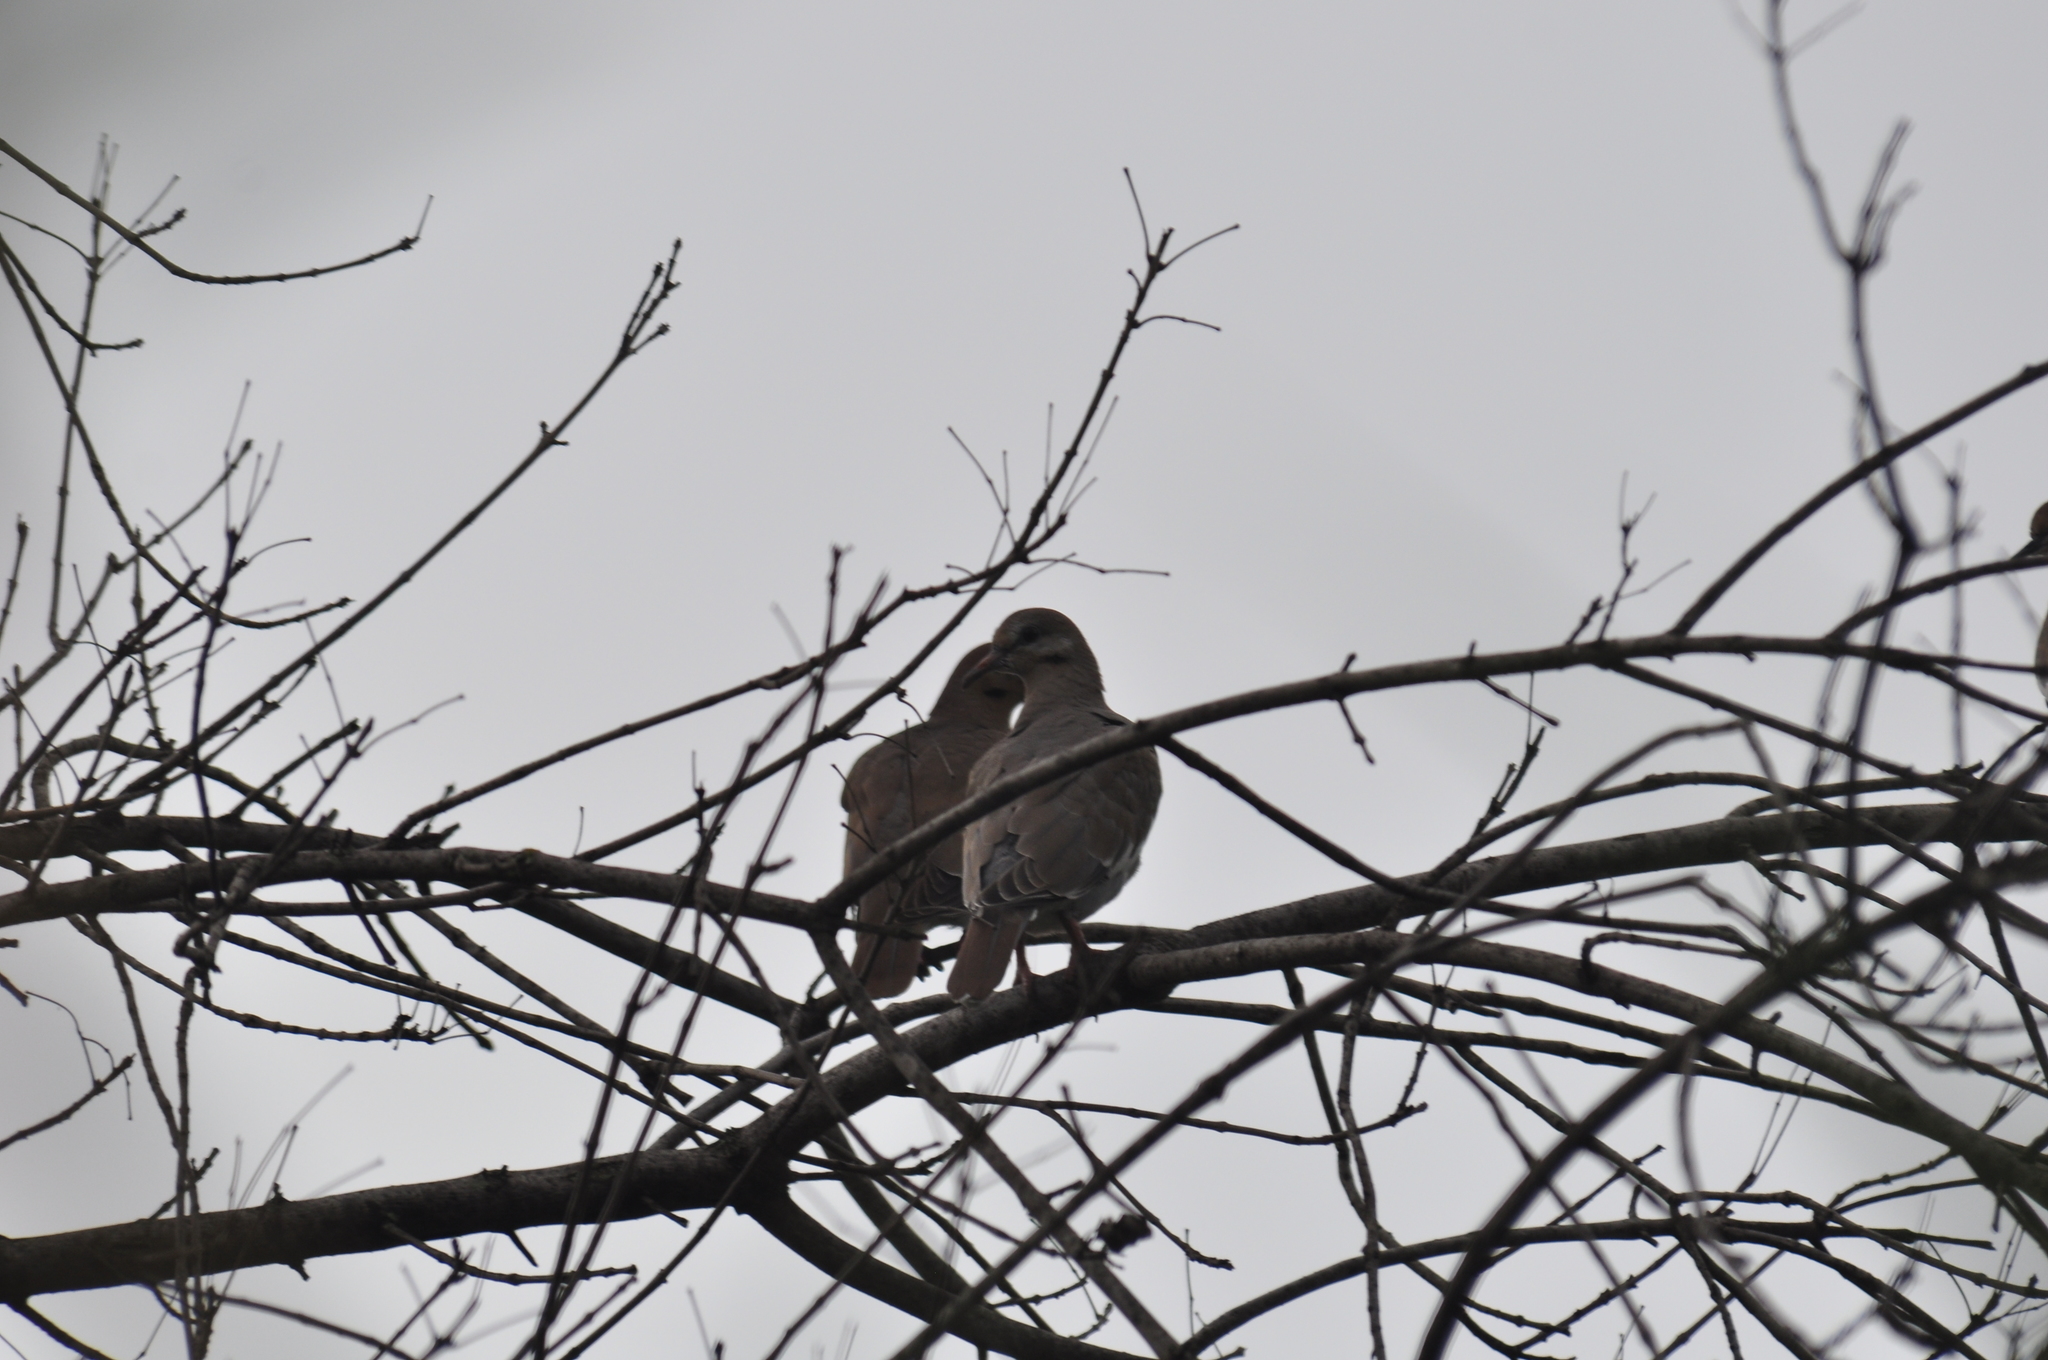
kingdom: Animalia
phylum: Chordata
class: Aves
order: Columbiformes
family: Columbidae
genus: Zenaida
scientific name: Zenaida asiatica
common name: White-winged dove
